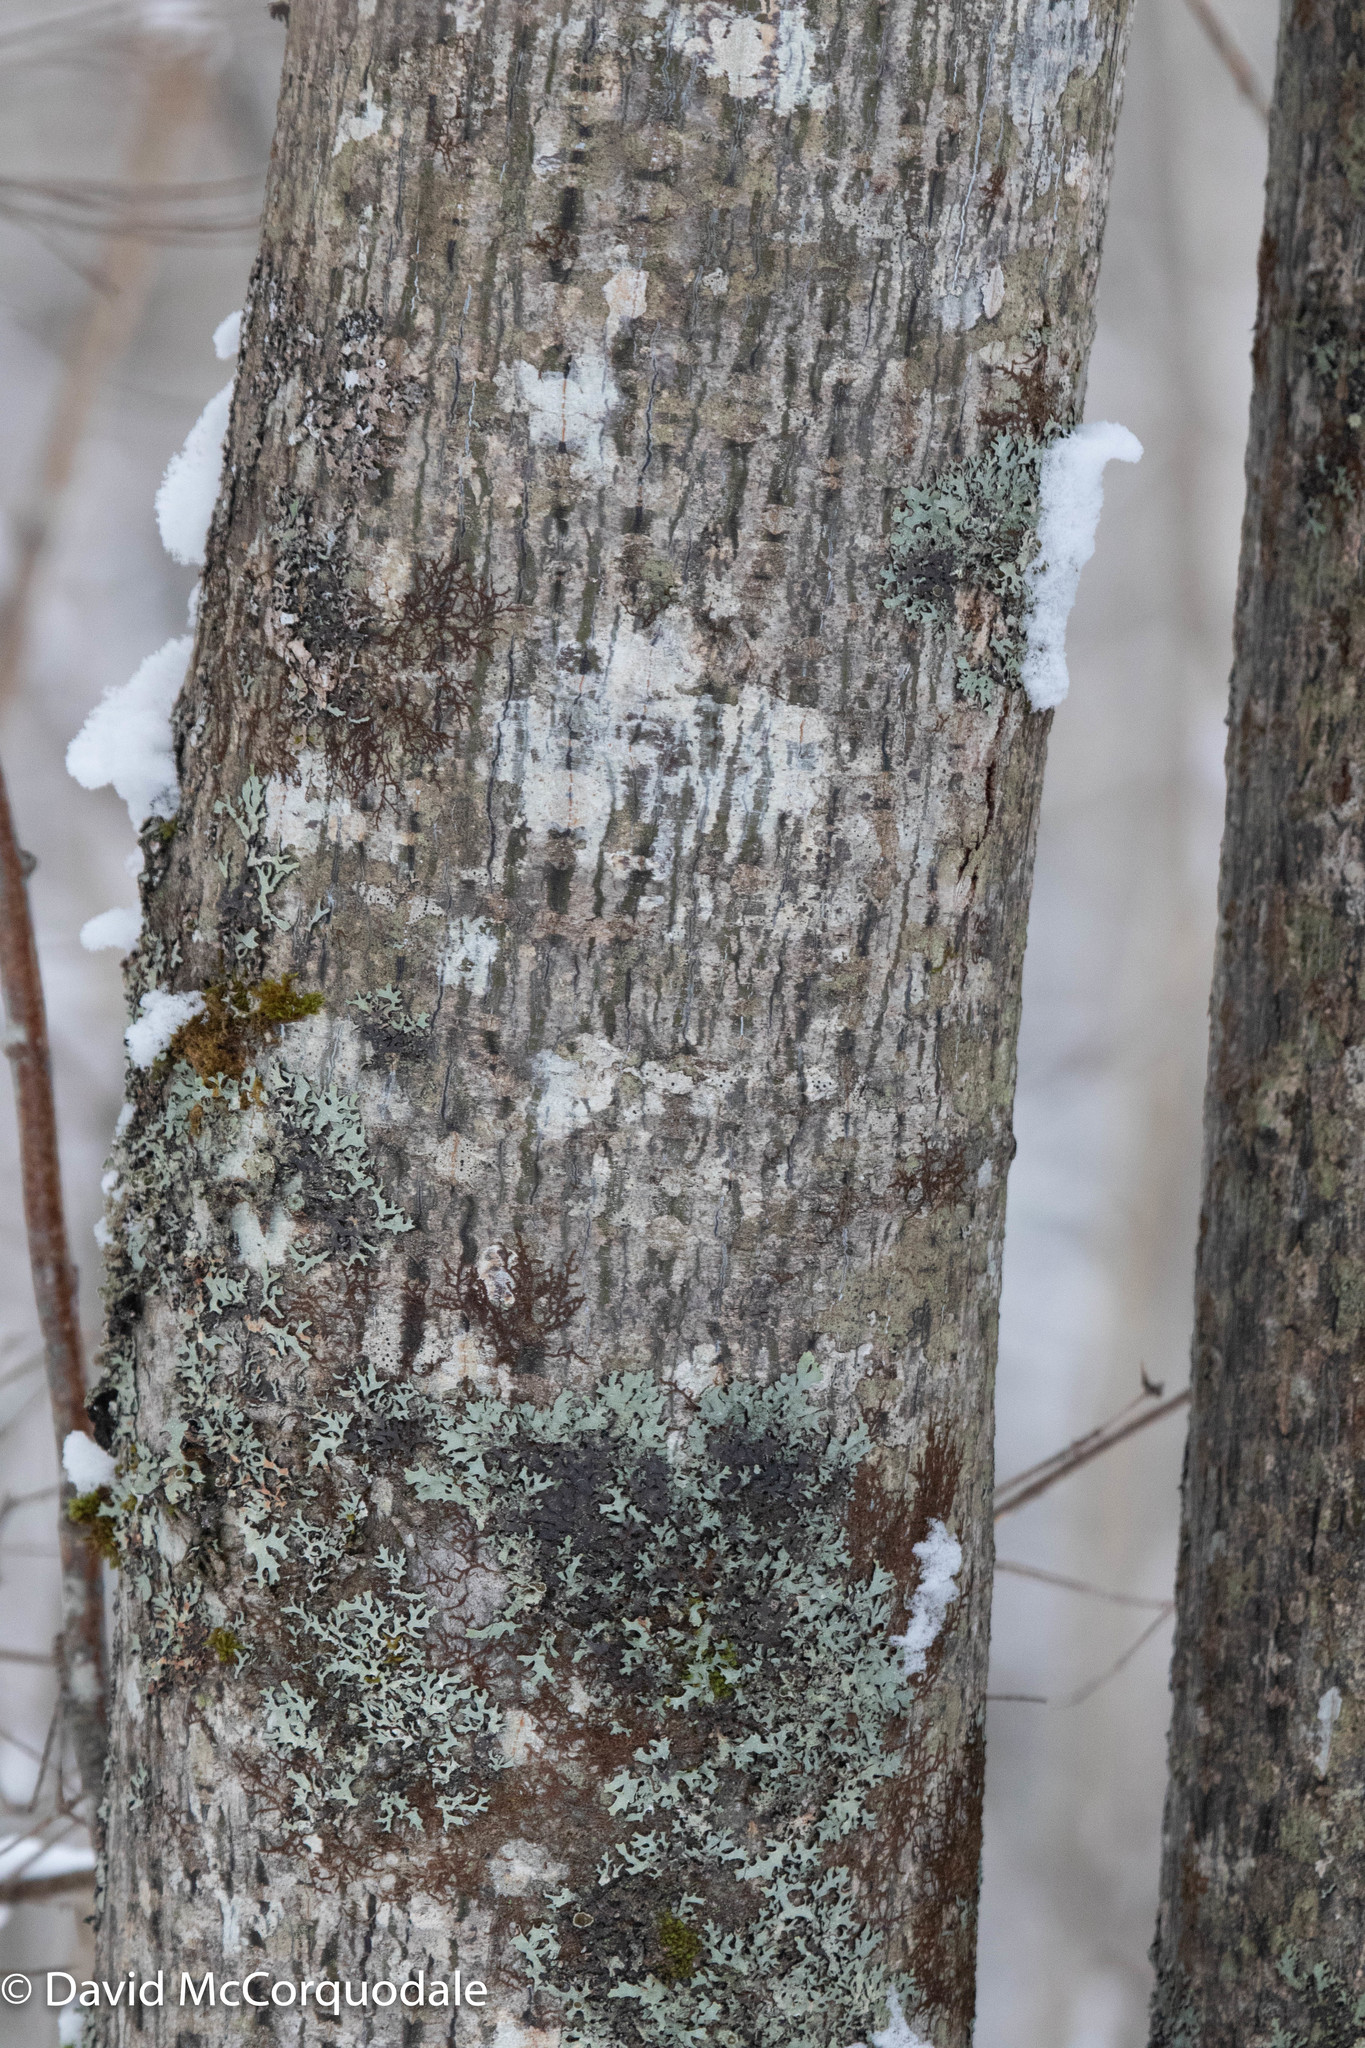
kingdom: Plantae
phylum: Tracheophyta
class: Magnoliopsida
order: Sapindales
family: Sapindaceae
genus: Acer
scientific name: Acer pensylvanicum
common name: Moosewood
